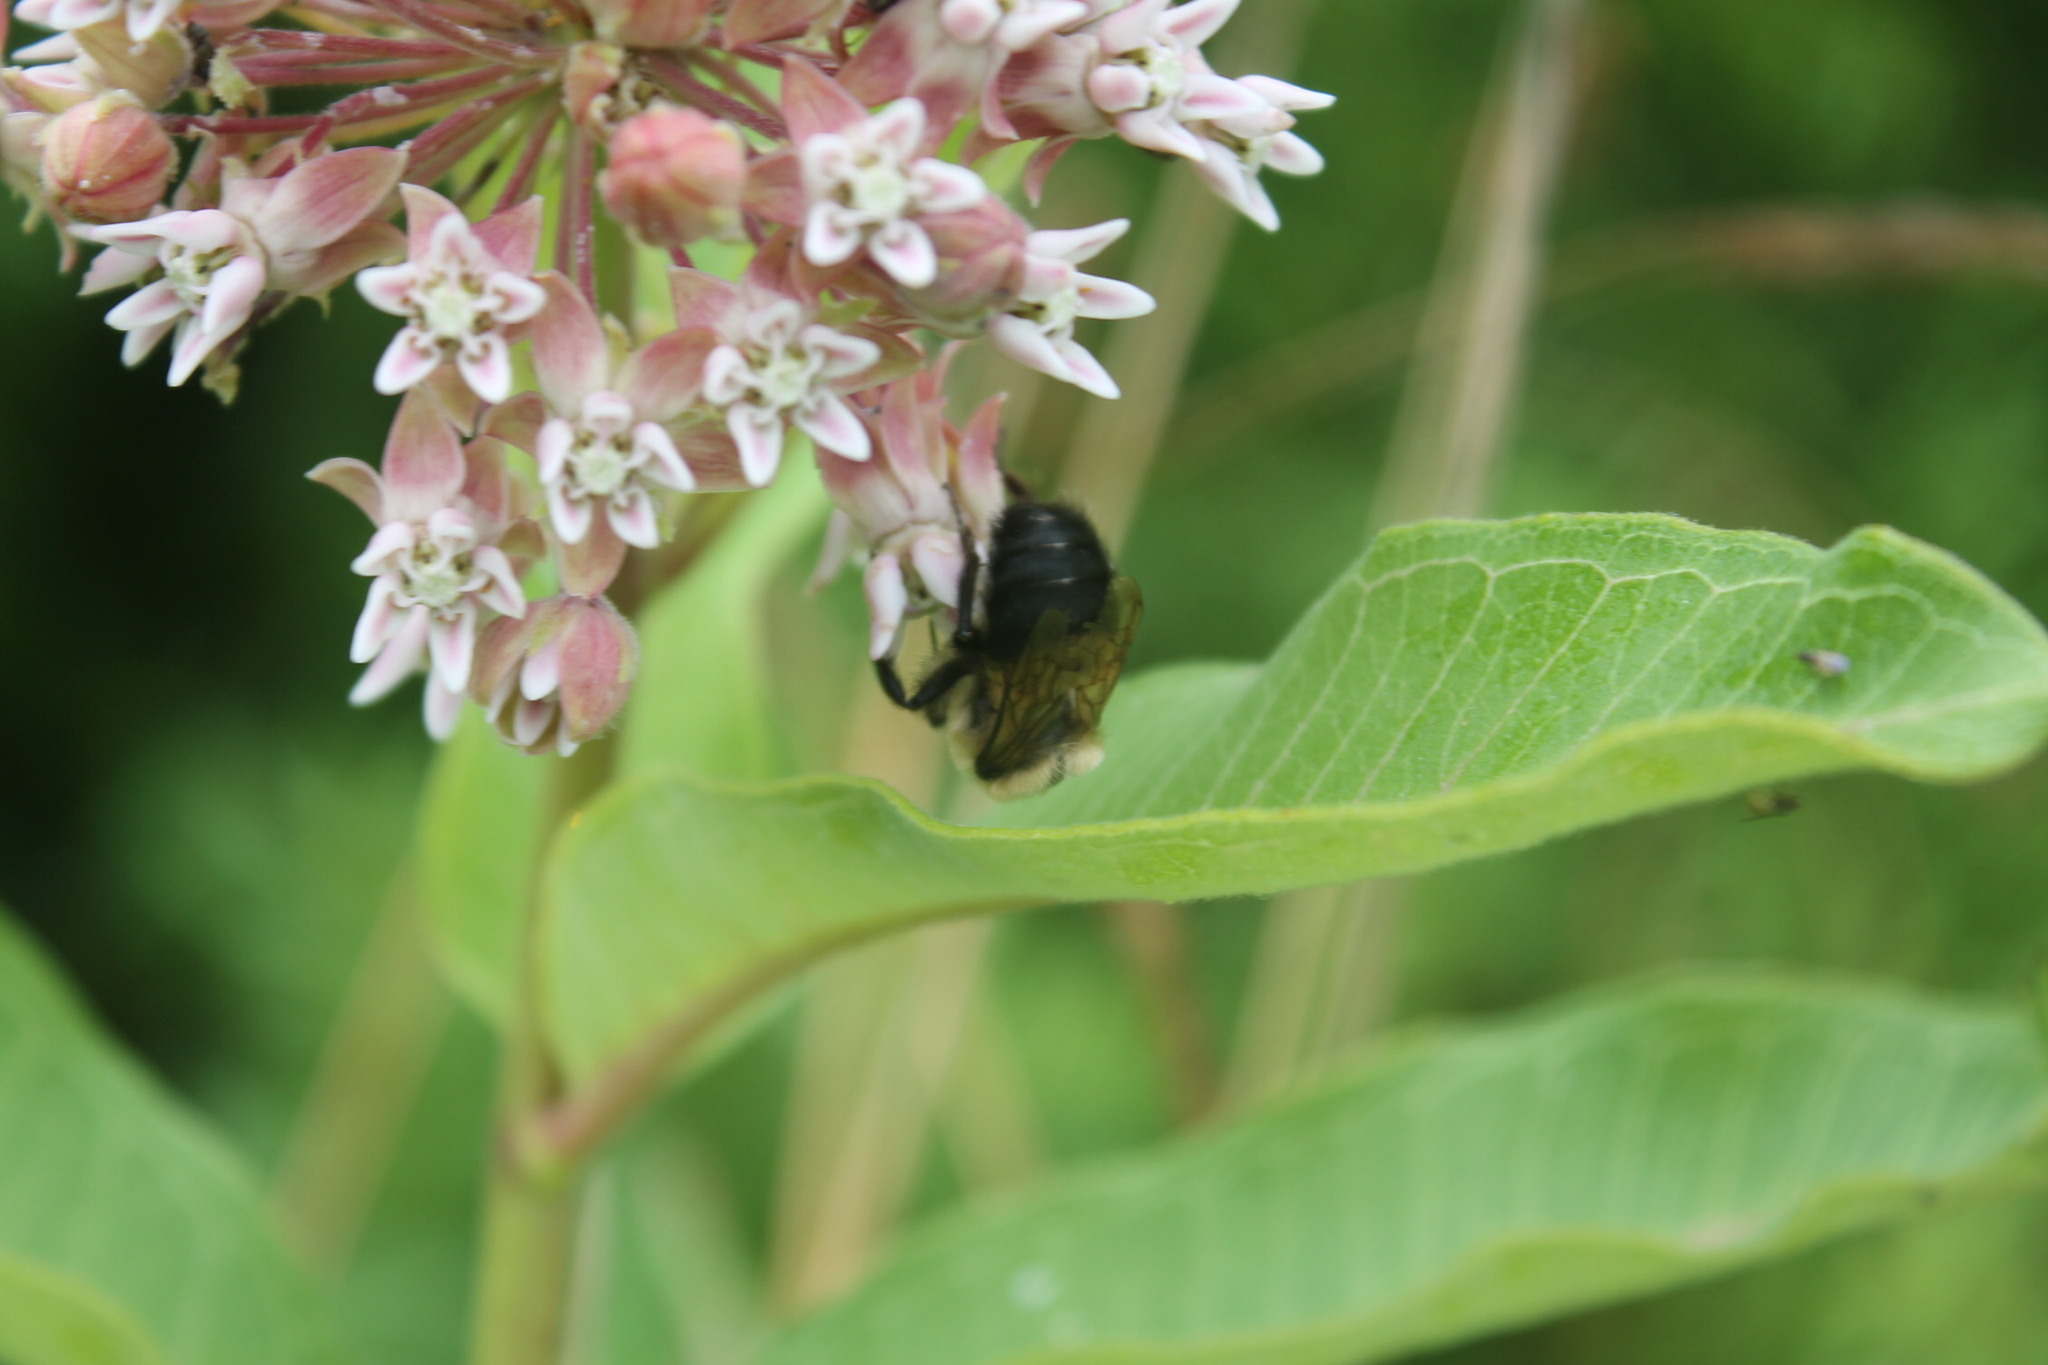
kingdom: Animalia
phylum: Arthropoda
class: Insecta
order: Hymenoptera
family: Apidae
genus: Bombus
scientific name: Bombus griseocollis
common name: Brown-belted bumble bee
